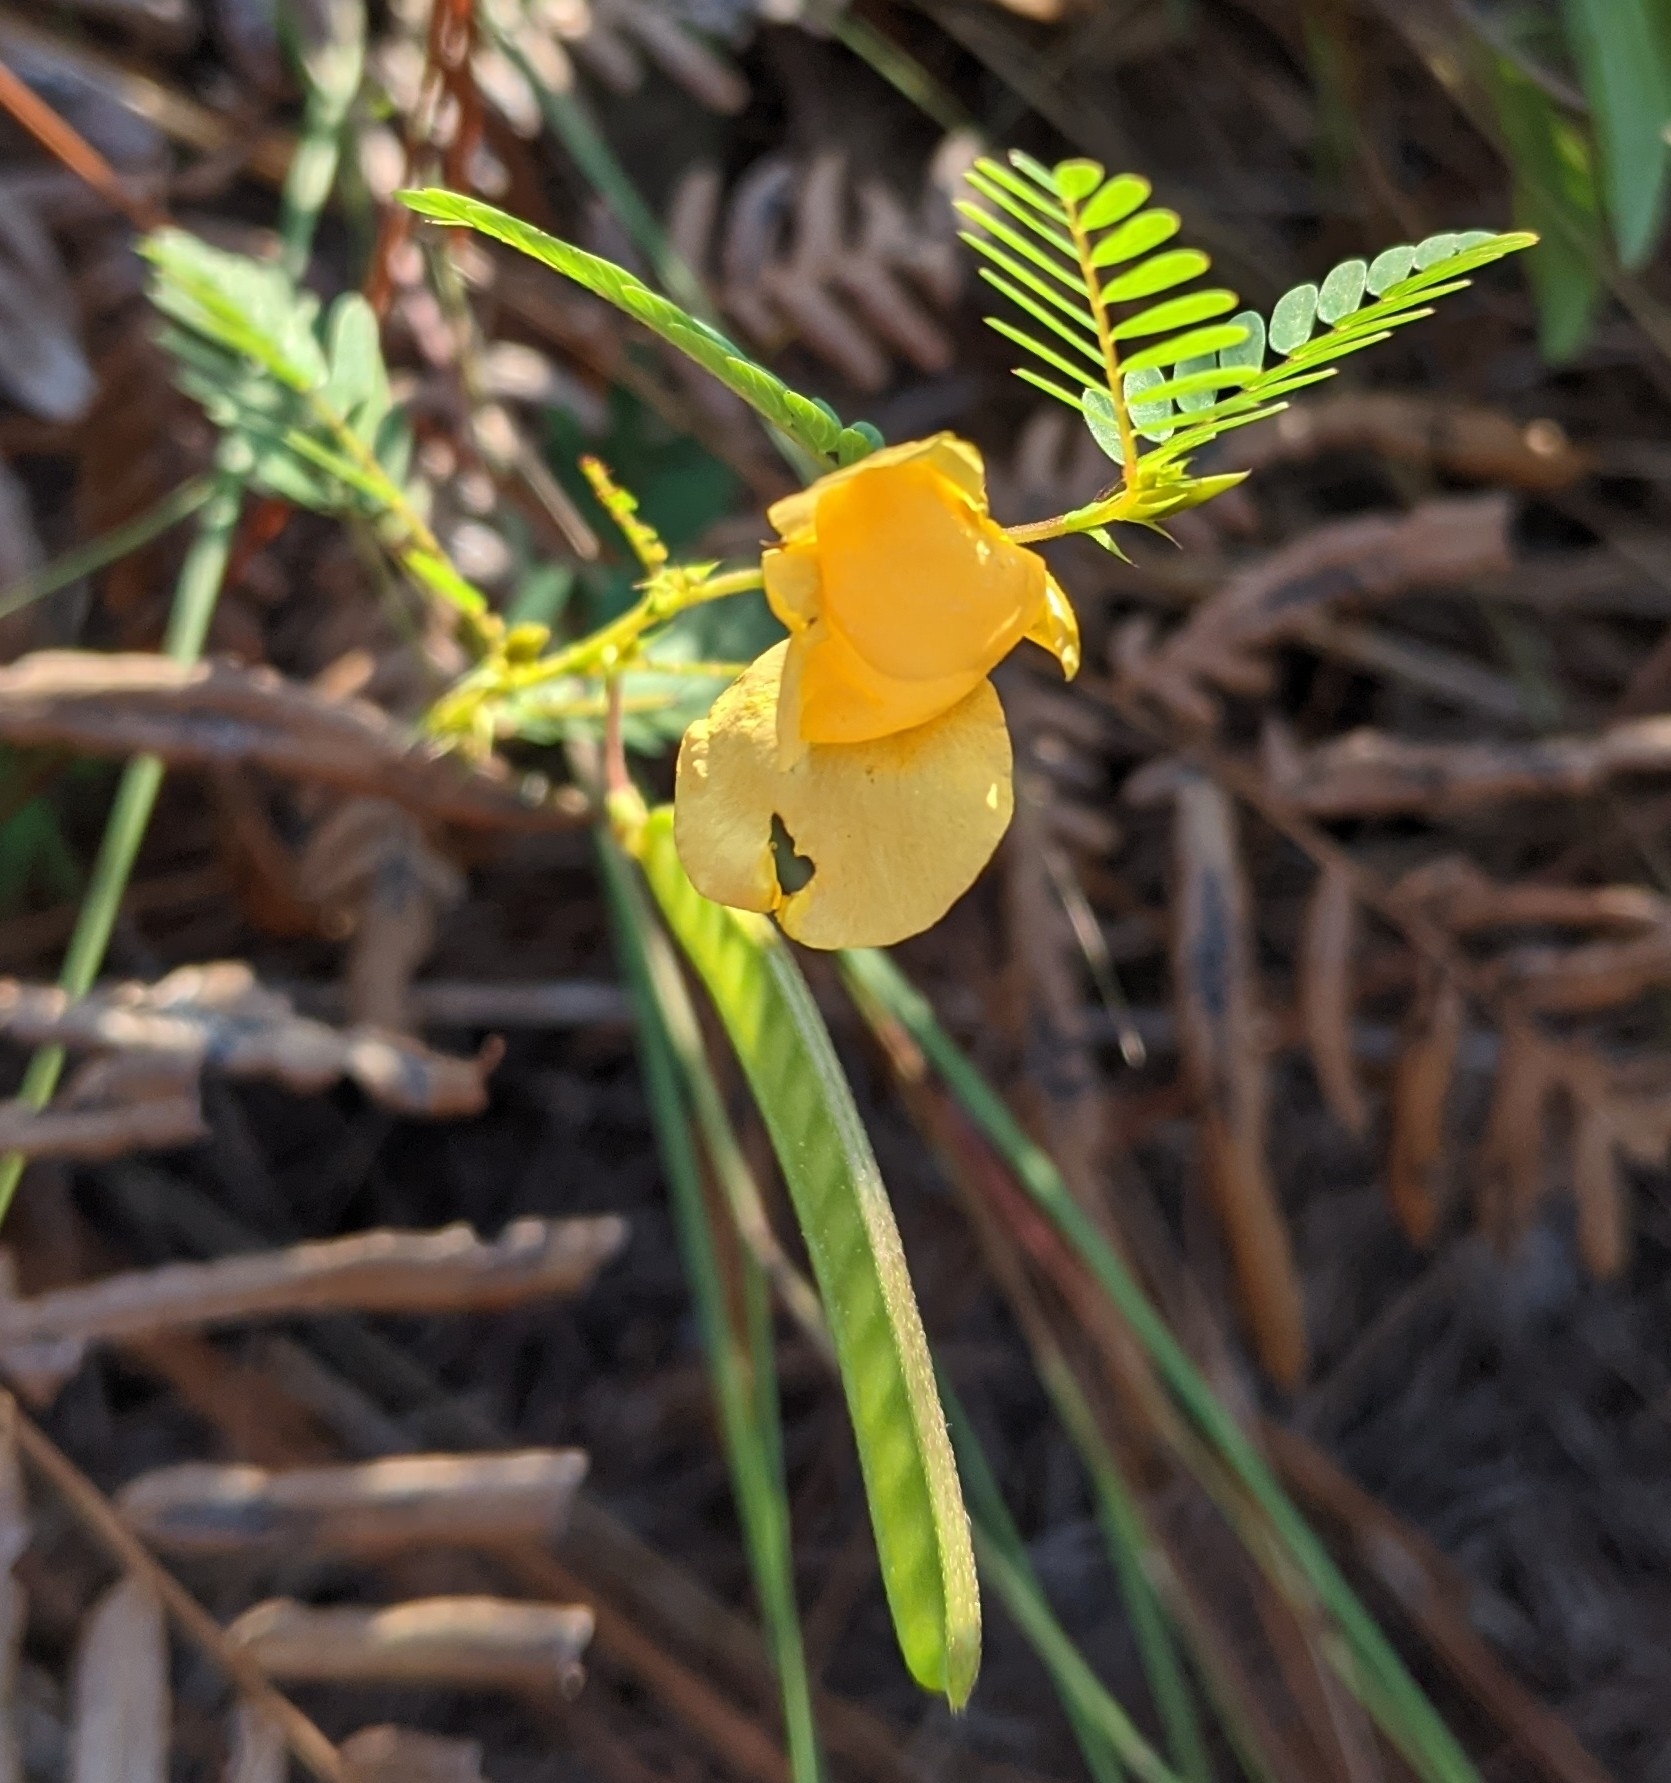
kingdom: Plantae
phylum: Tracheophyta
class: Magnoliopsida
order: Fabales
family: Fabaceae
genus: Chamaecrista
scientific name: Chamaecrista fasciculata
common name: Golden cassia
